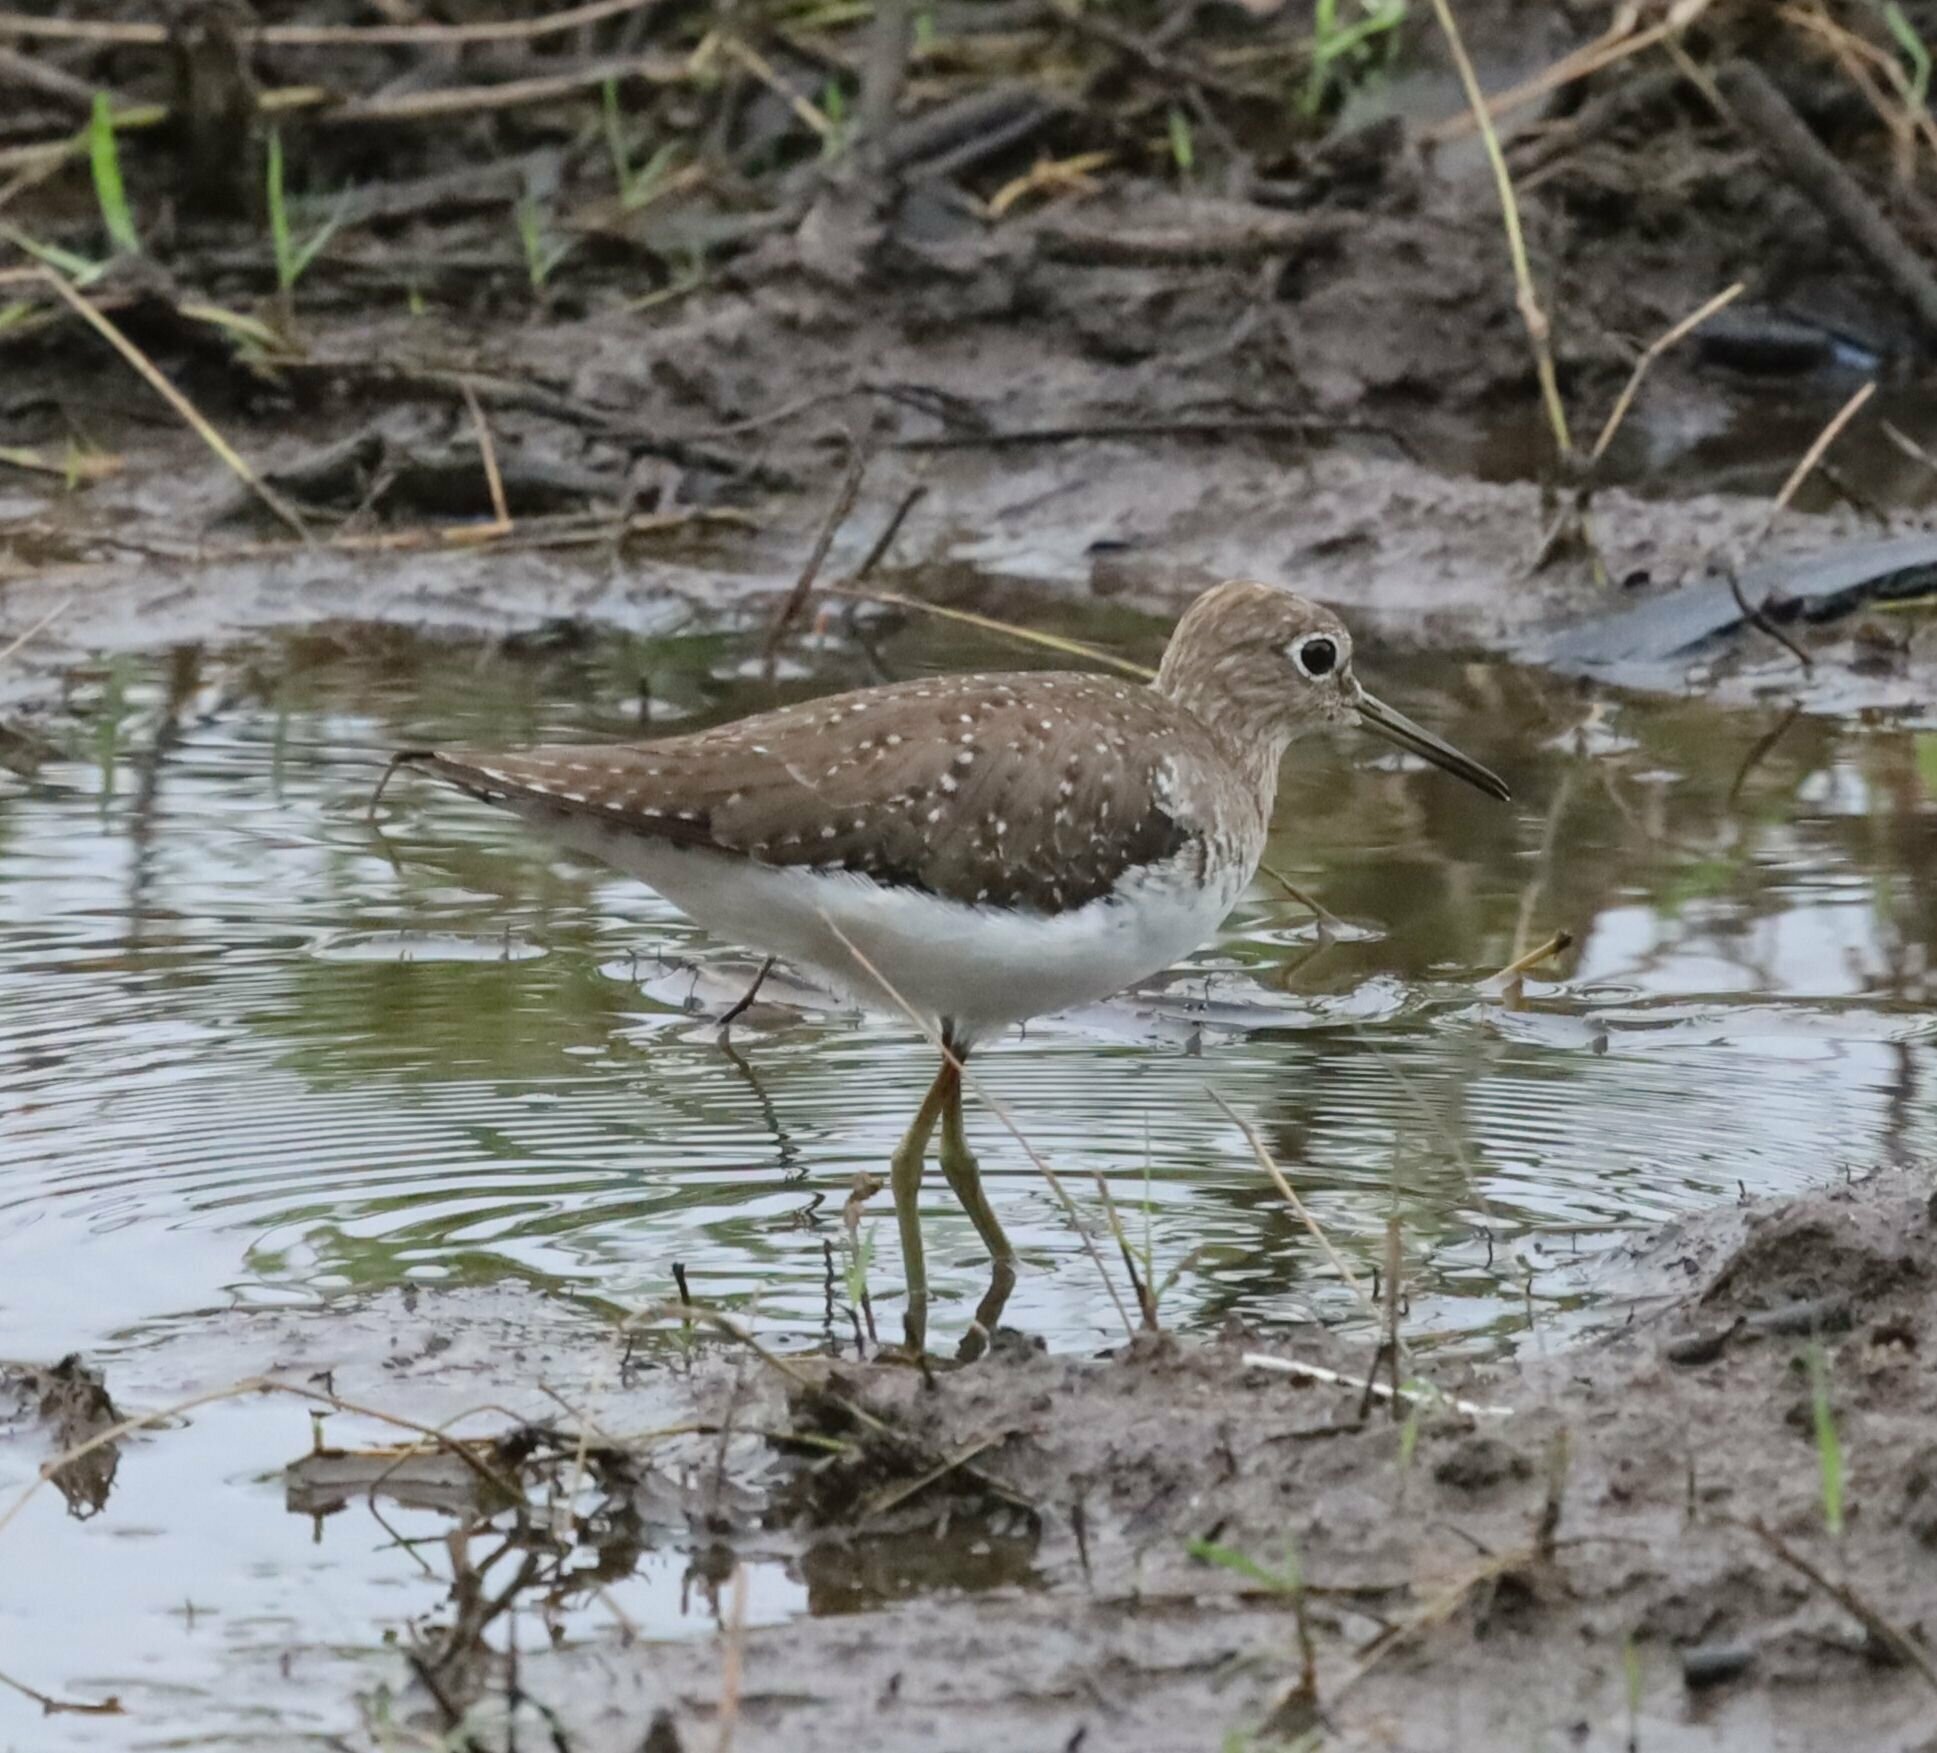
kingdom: Animalia
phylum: Chordata
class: Aves
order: Charadriiformes
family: Scolopacidae
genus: Tringa
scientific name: Tringa solitaria
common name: Solitary sandpiper
